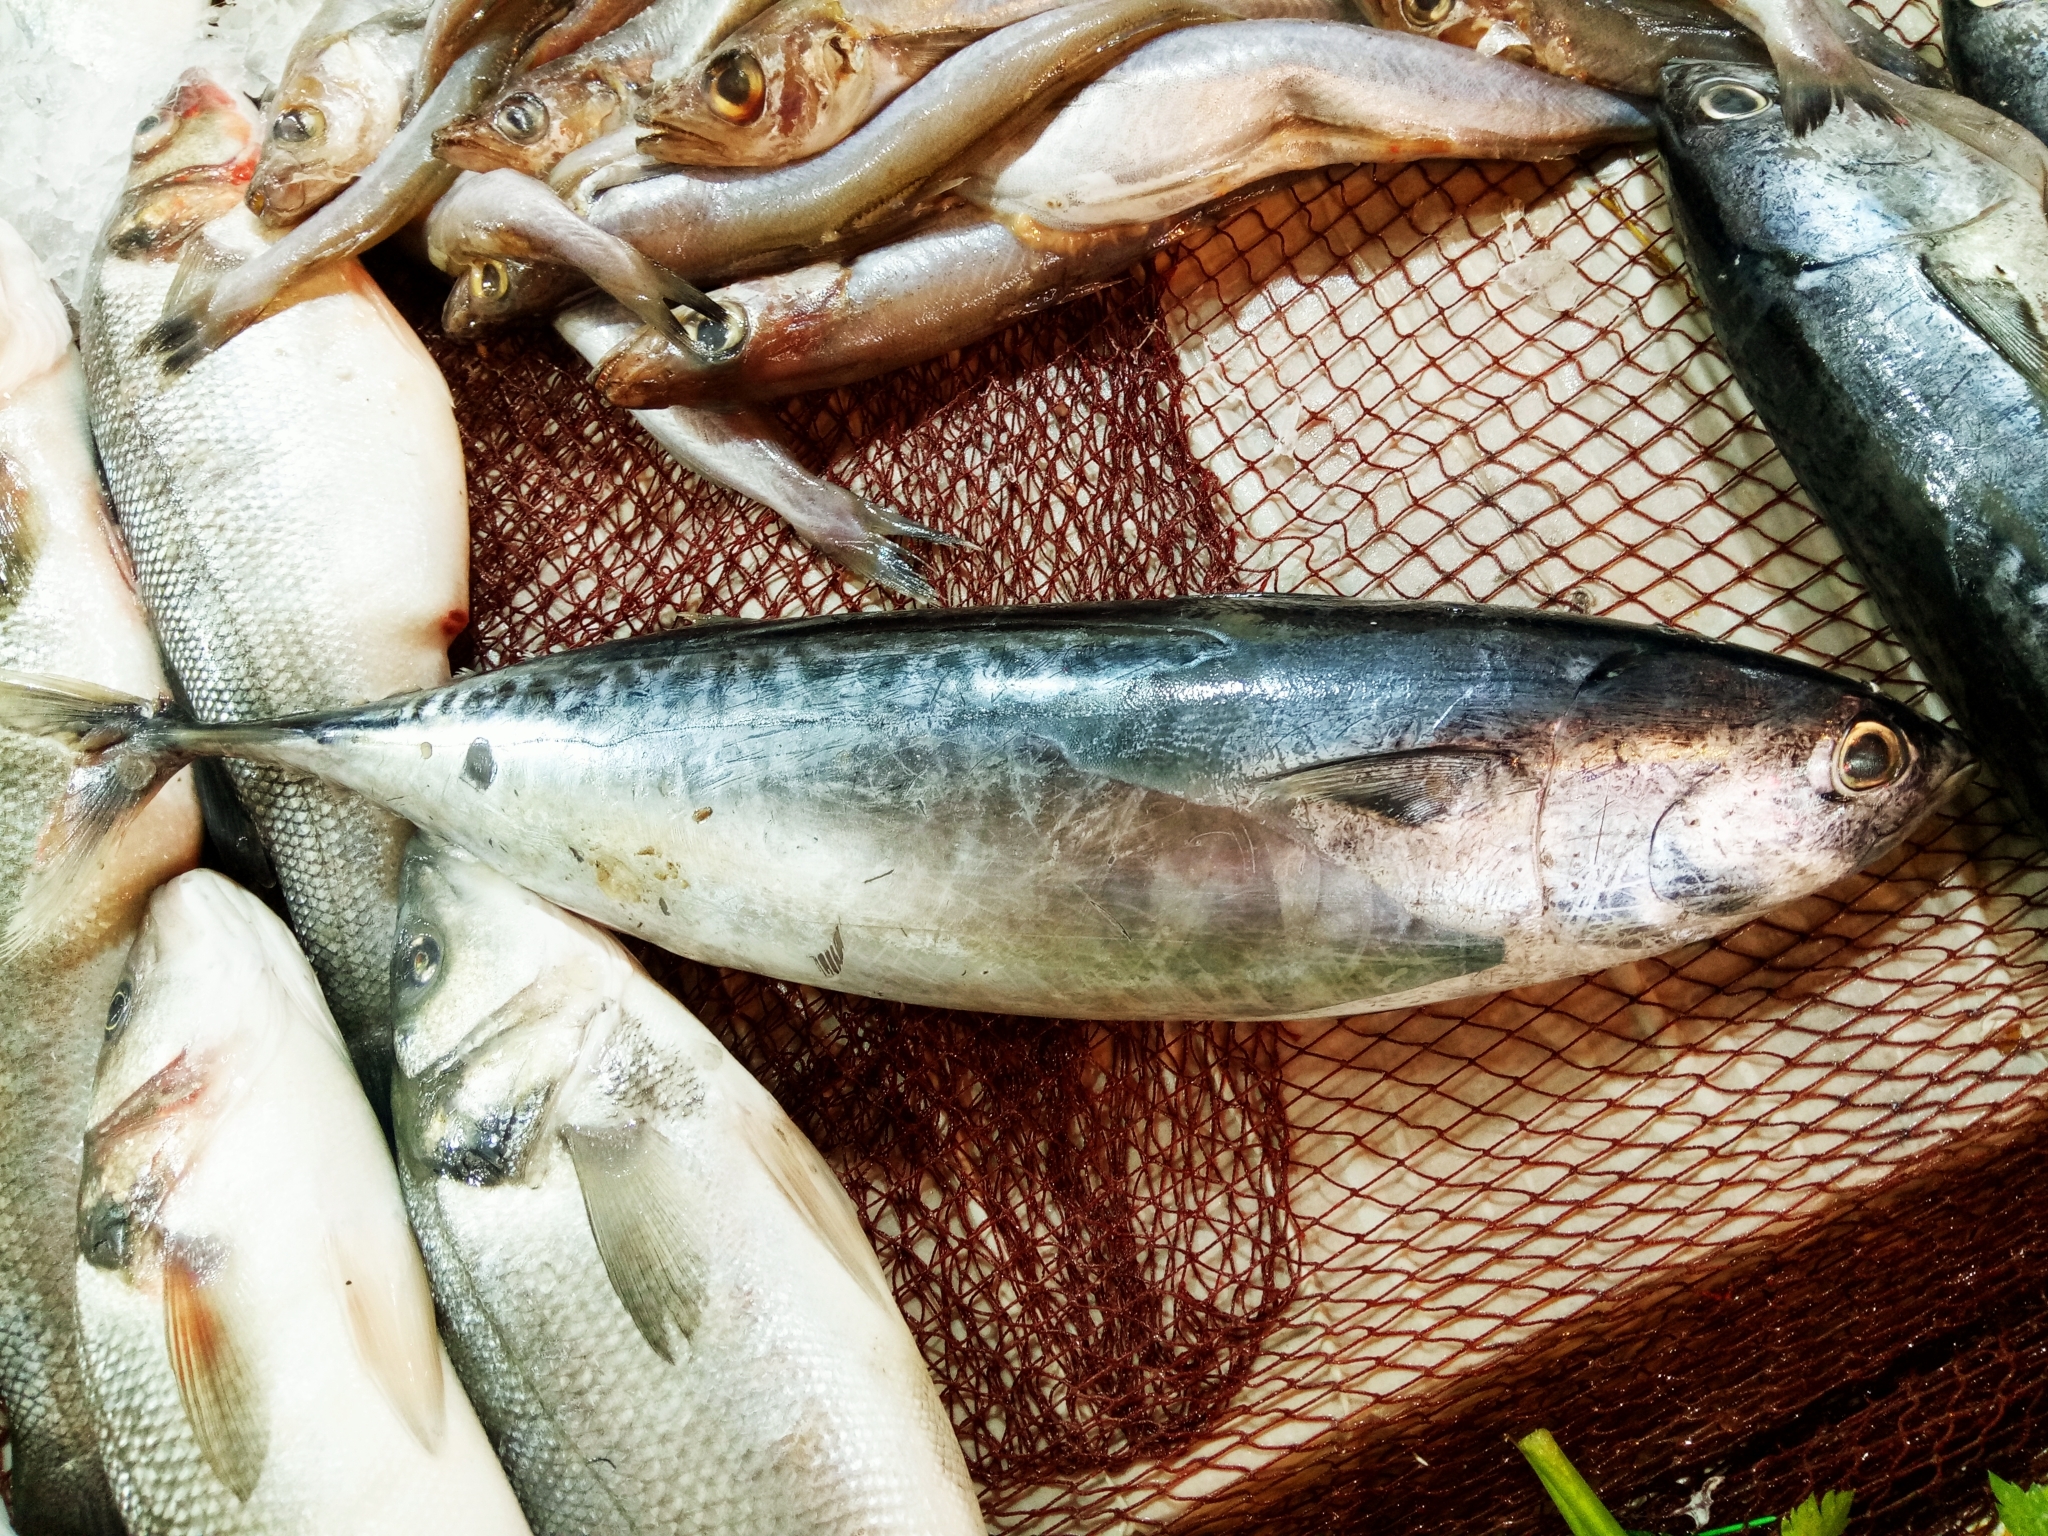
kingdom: Animalia
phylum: Chordata
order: Perciformes
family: Scombridae
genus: Auxis
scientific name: Auxis rochei
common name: Bullet tuna
